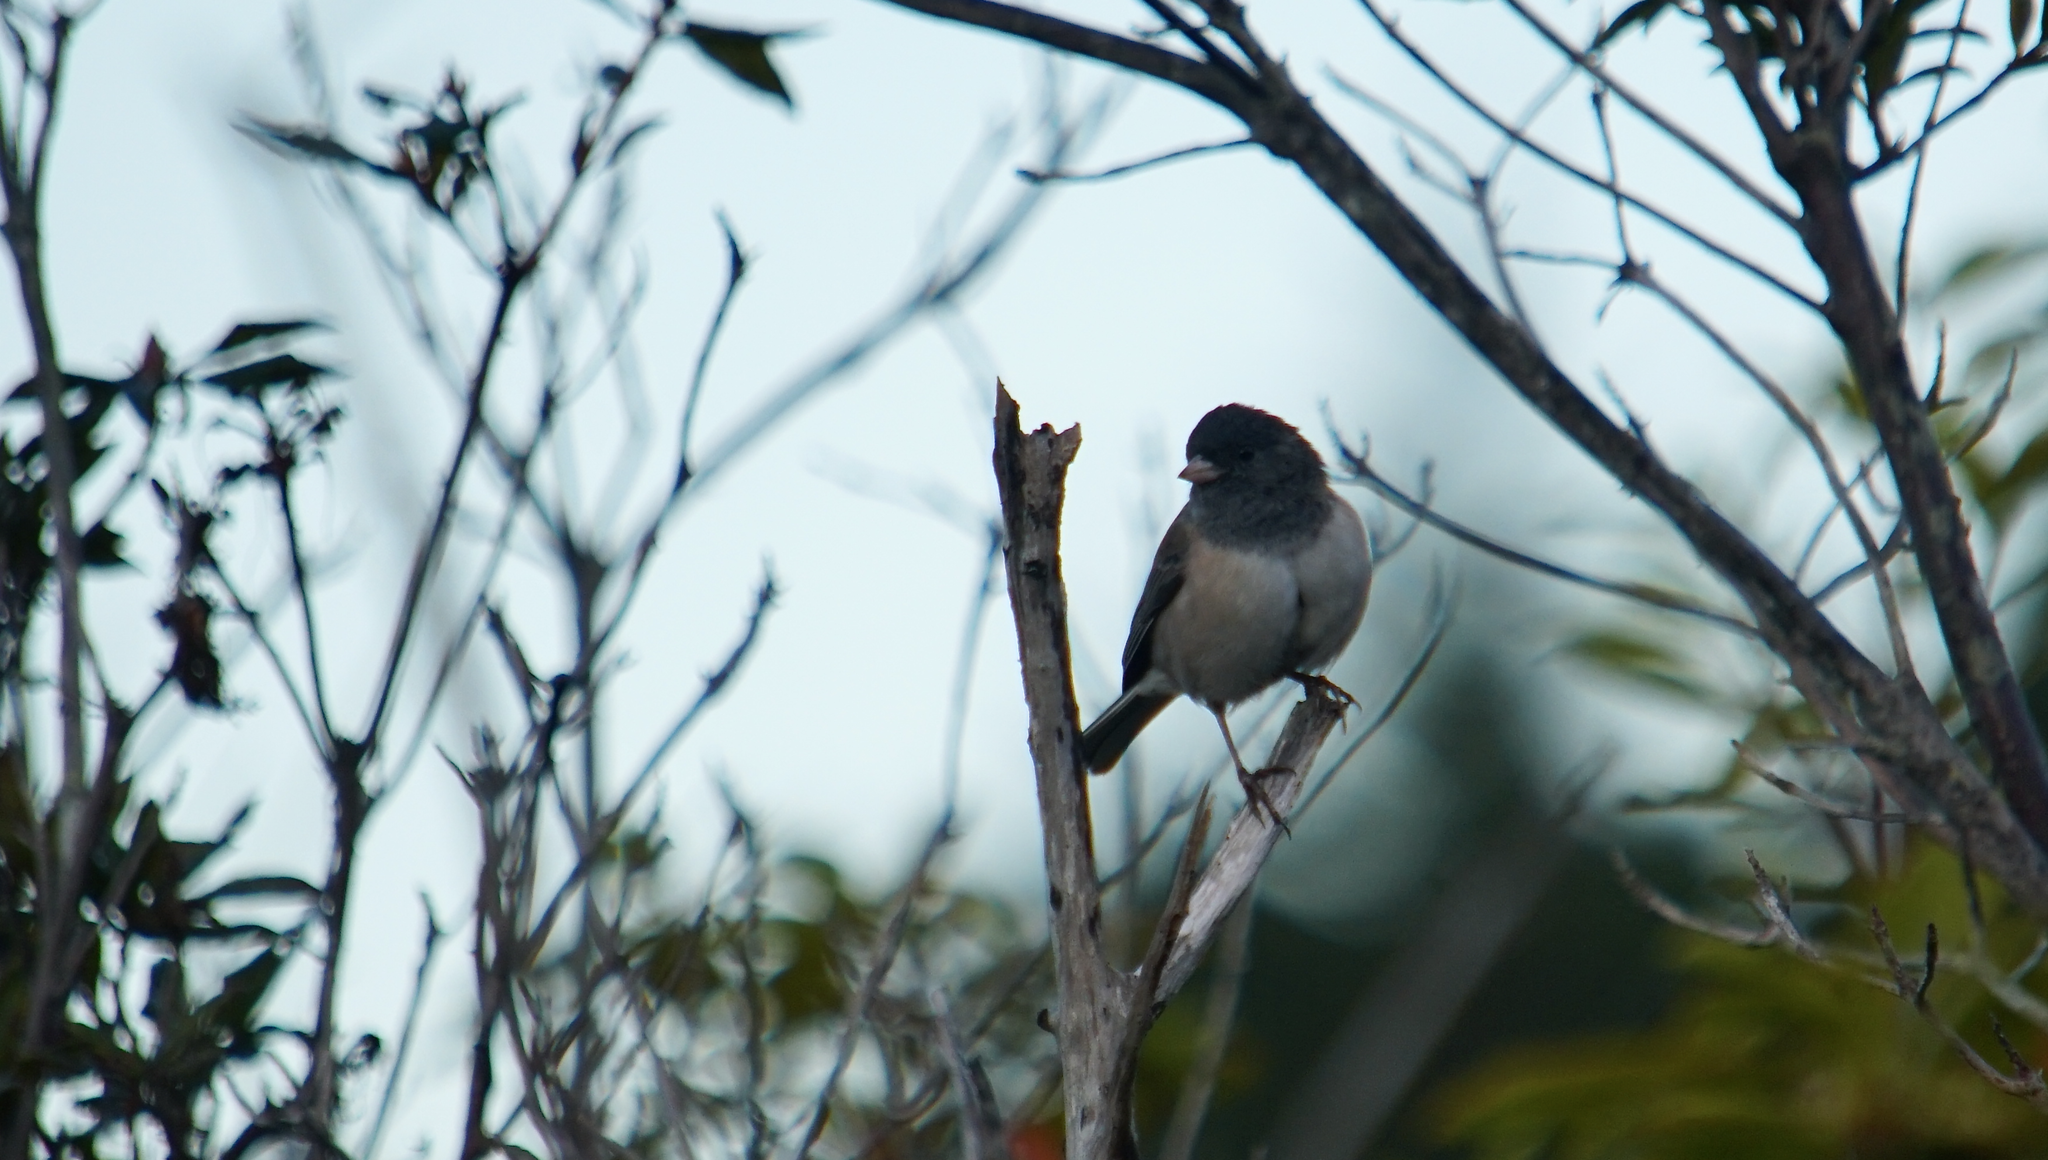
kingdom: Animalia
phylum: Chordata
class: Aves
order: Passeriformes
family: Passerellidae
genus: Junco
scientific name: Junco hyemalis
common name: Dark-eyed junco
